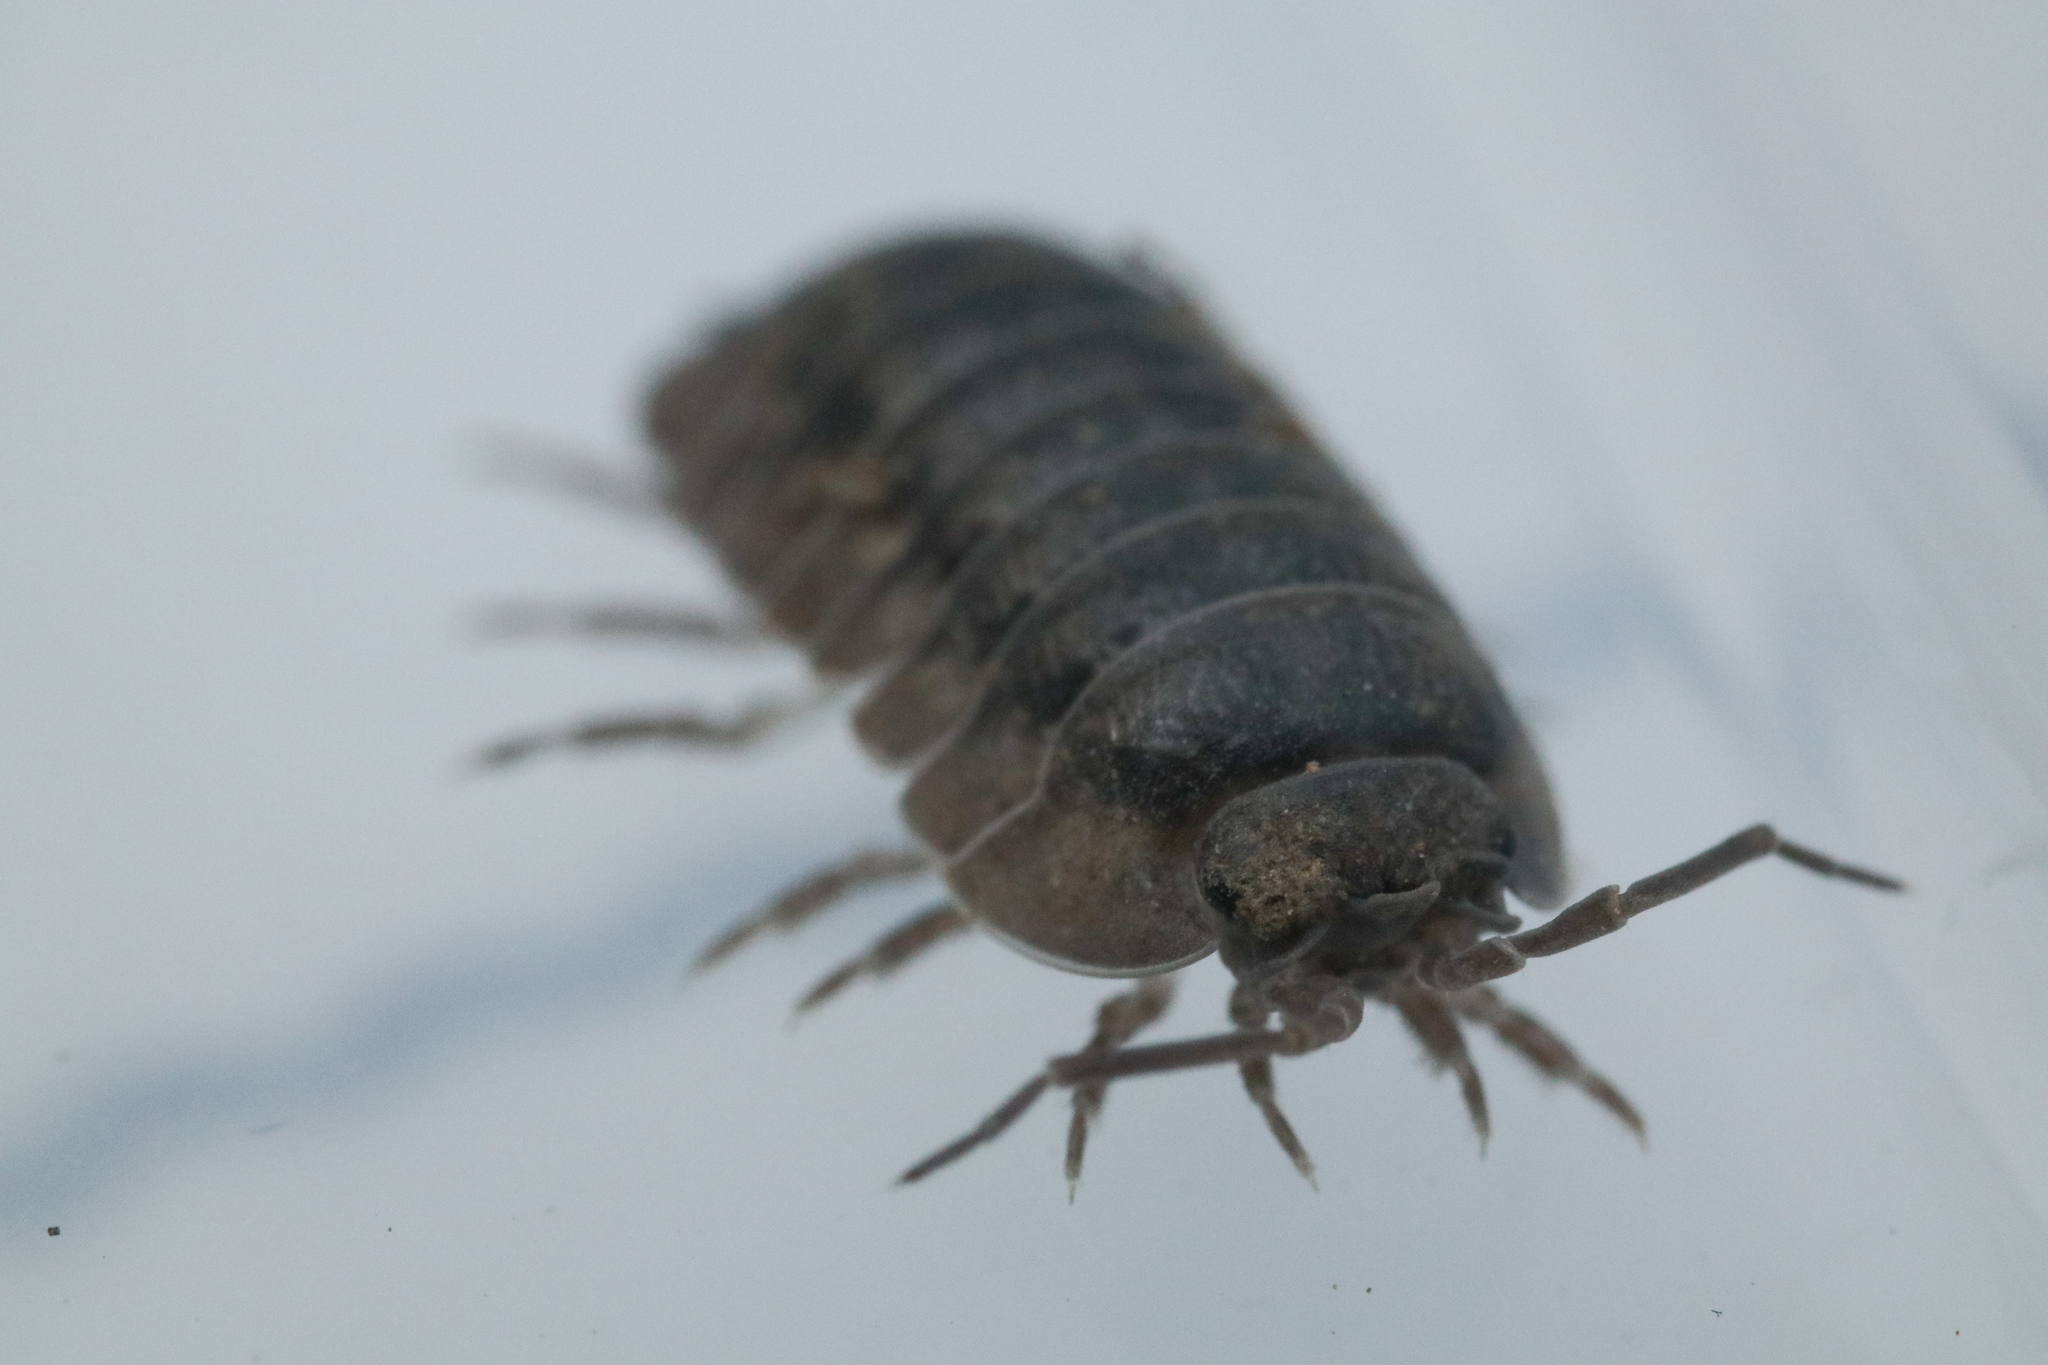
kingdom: Animalia
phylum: Arthropoda
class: Malacostraca
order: Isopoda
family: Armadillidiidae
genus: Armadillidium
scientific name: Armadillidium nasatum
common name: Isopod
